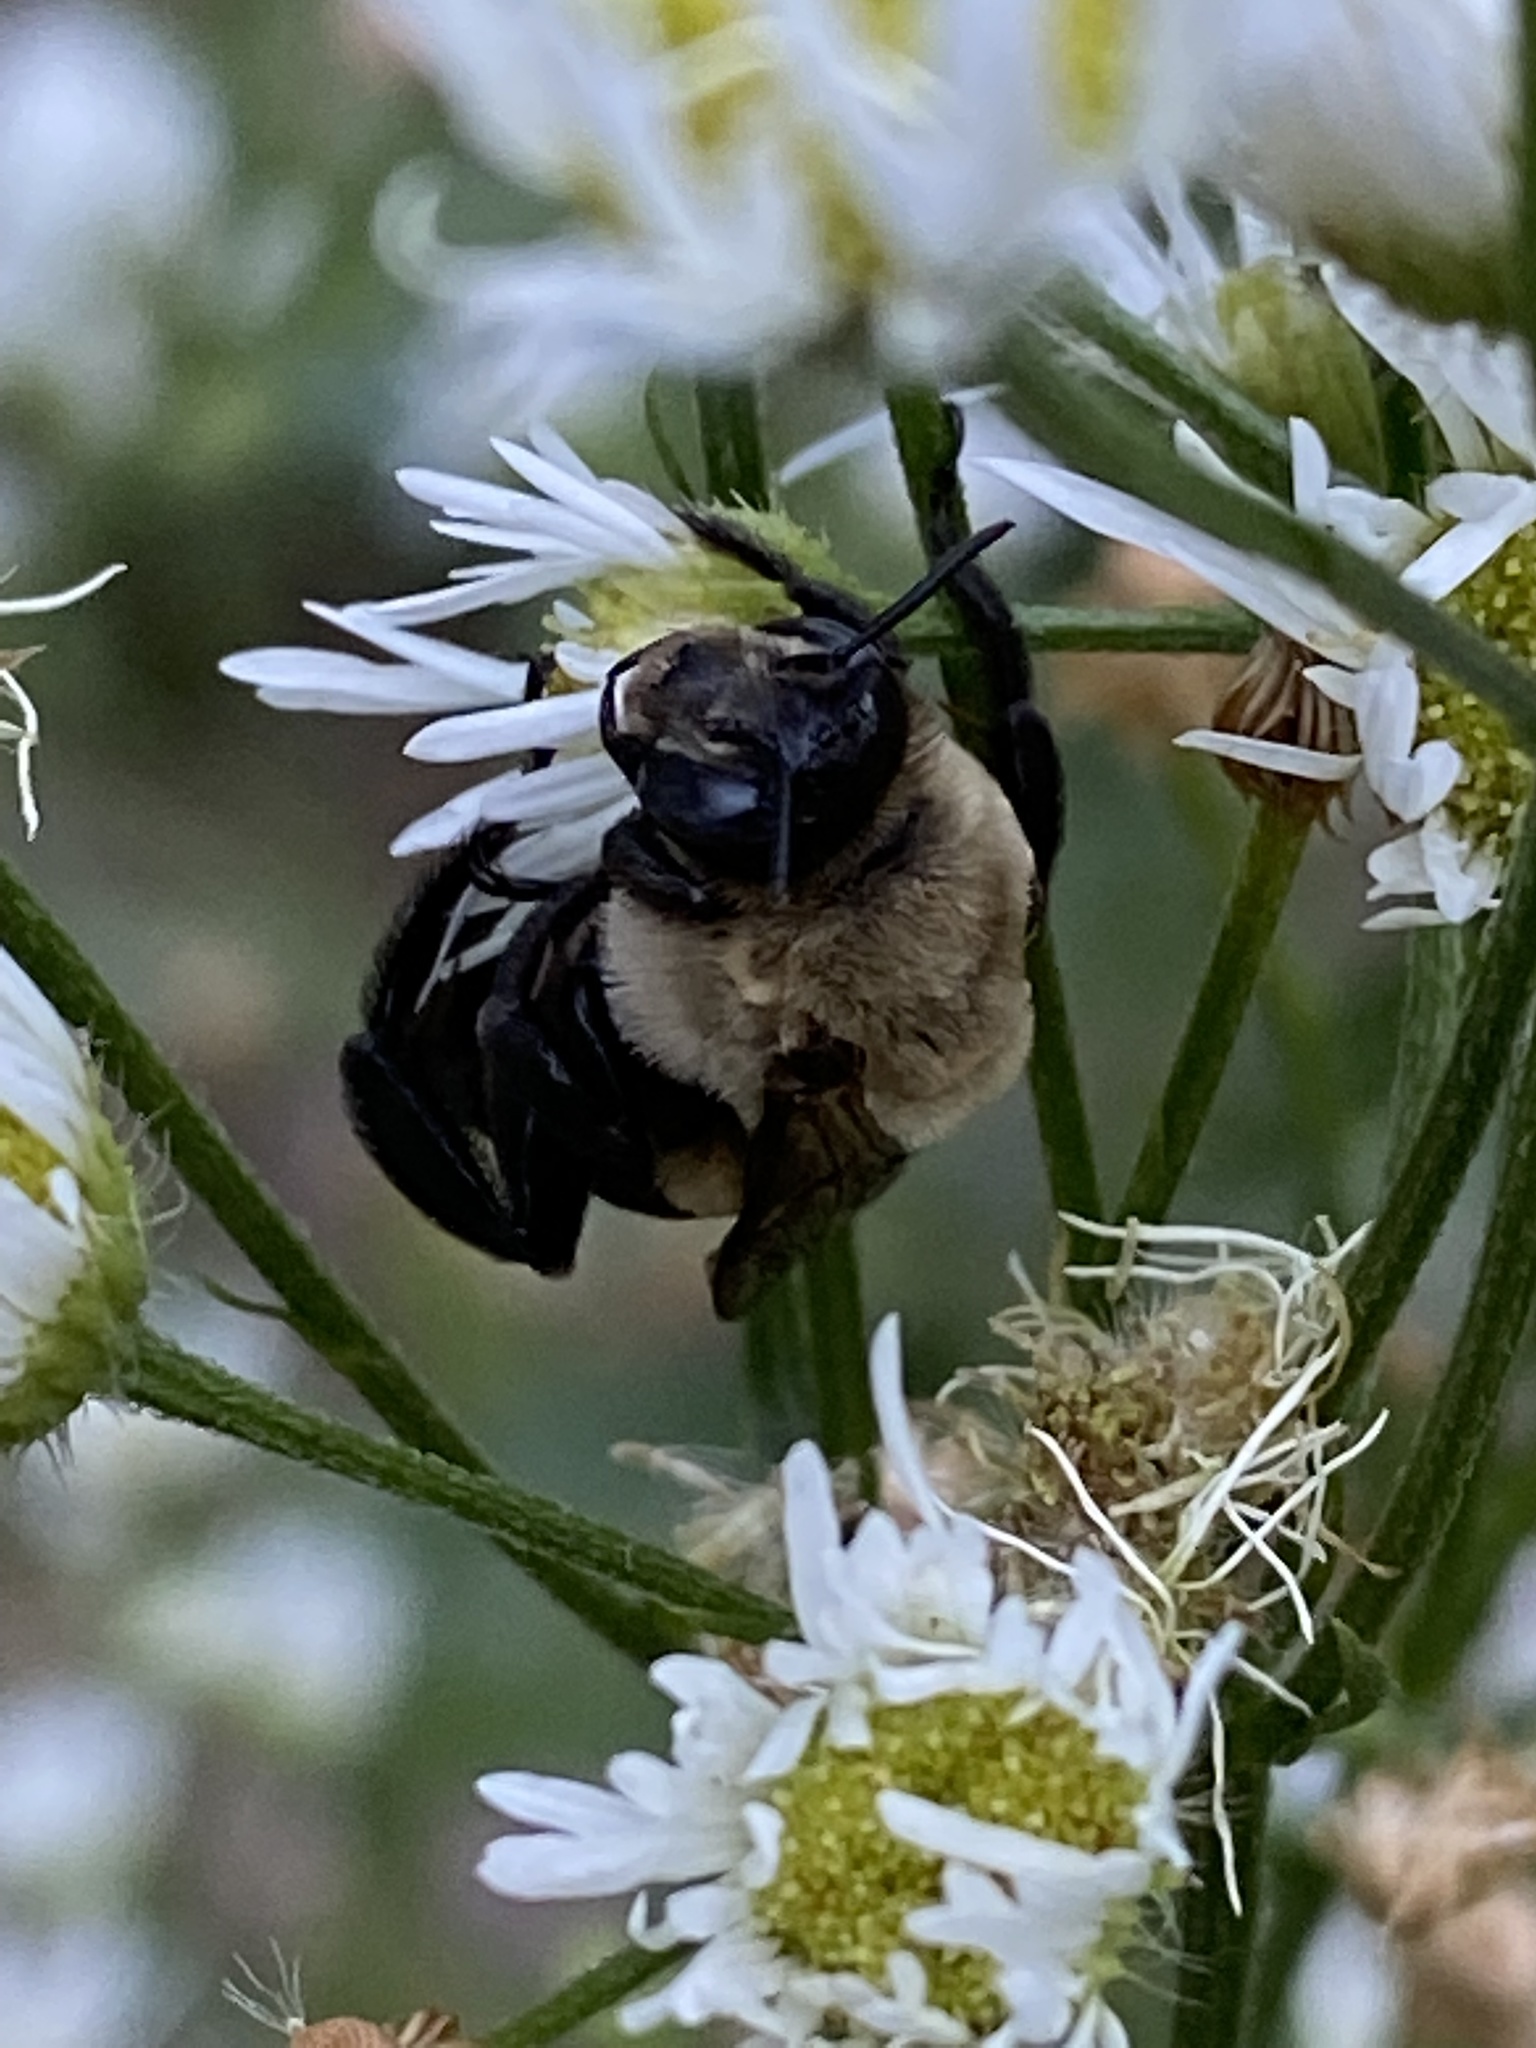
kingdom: Animalia
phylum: Arthropoda
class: Insecta
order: Hymenoptera
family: Apidae
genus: Ptilothrix
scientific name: Ptilothrix bombiformis
